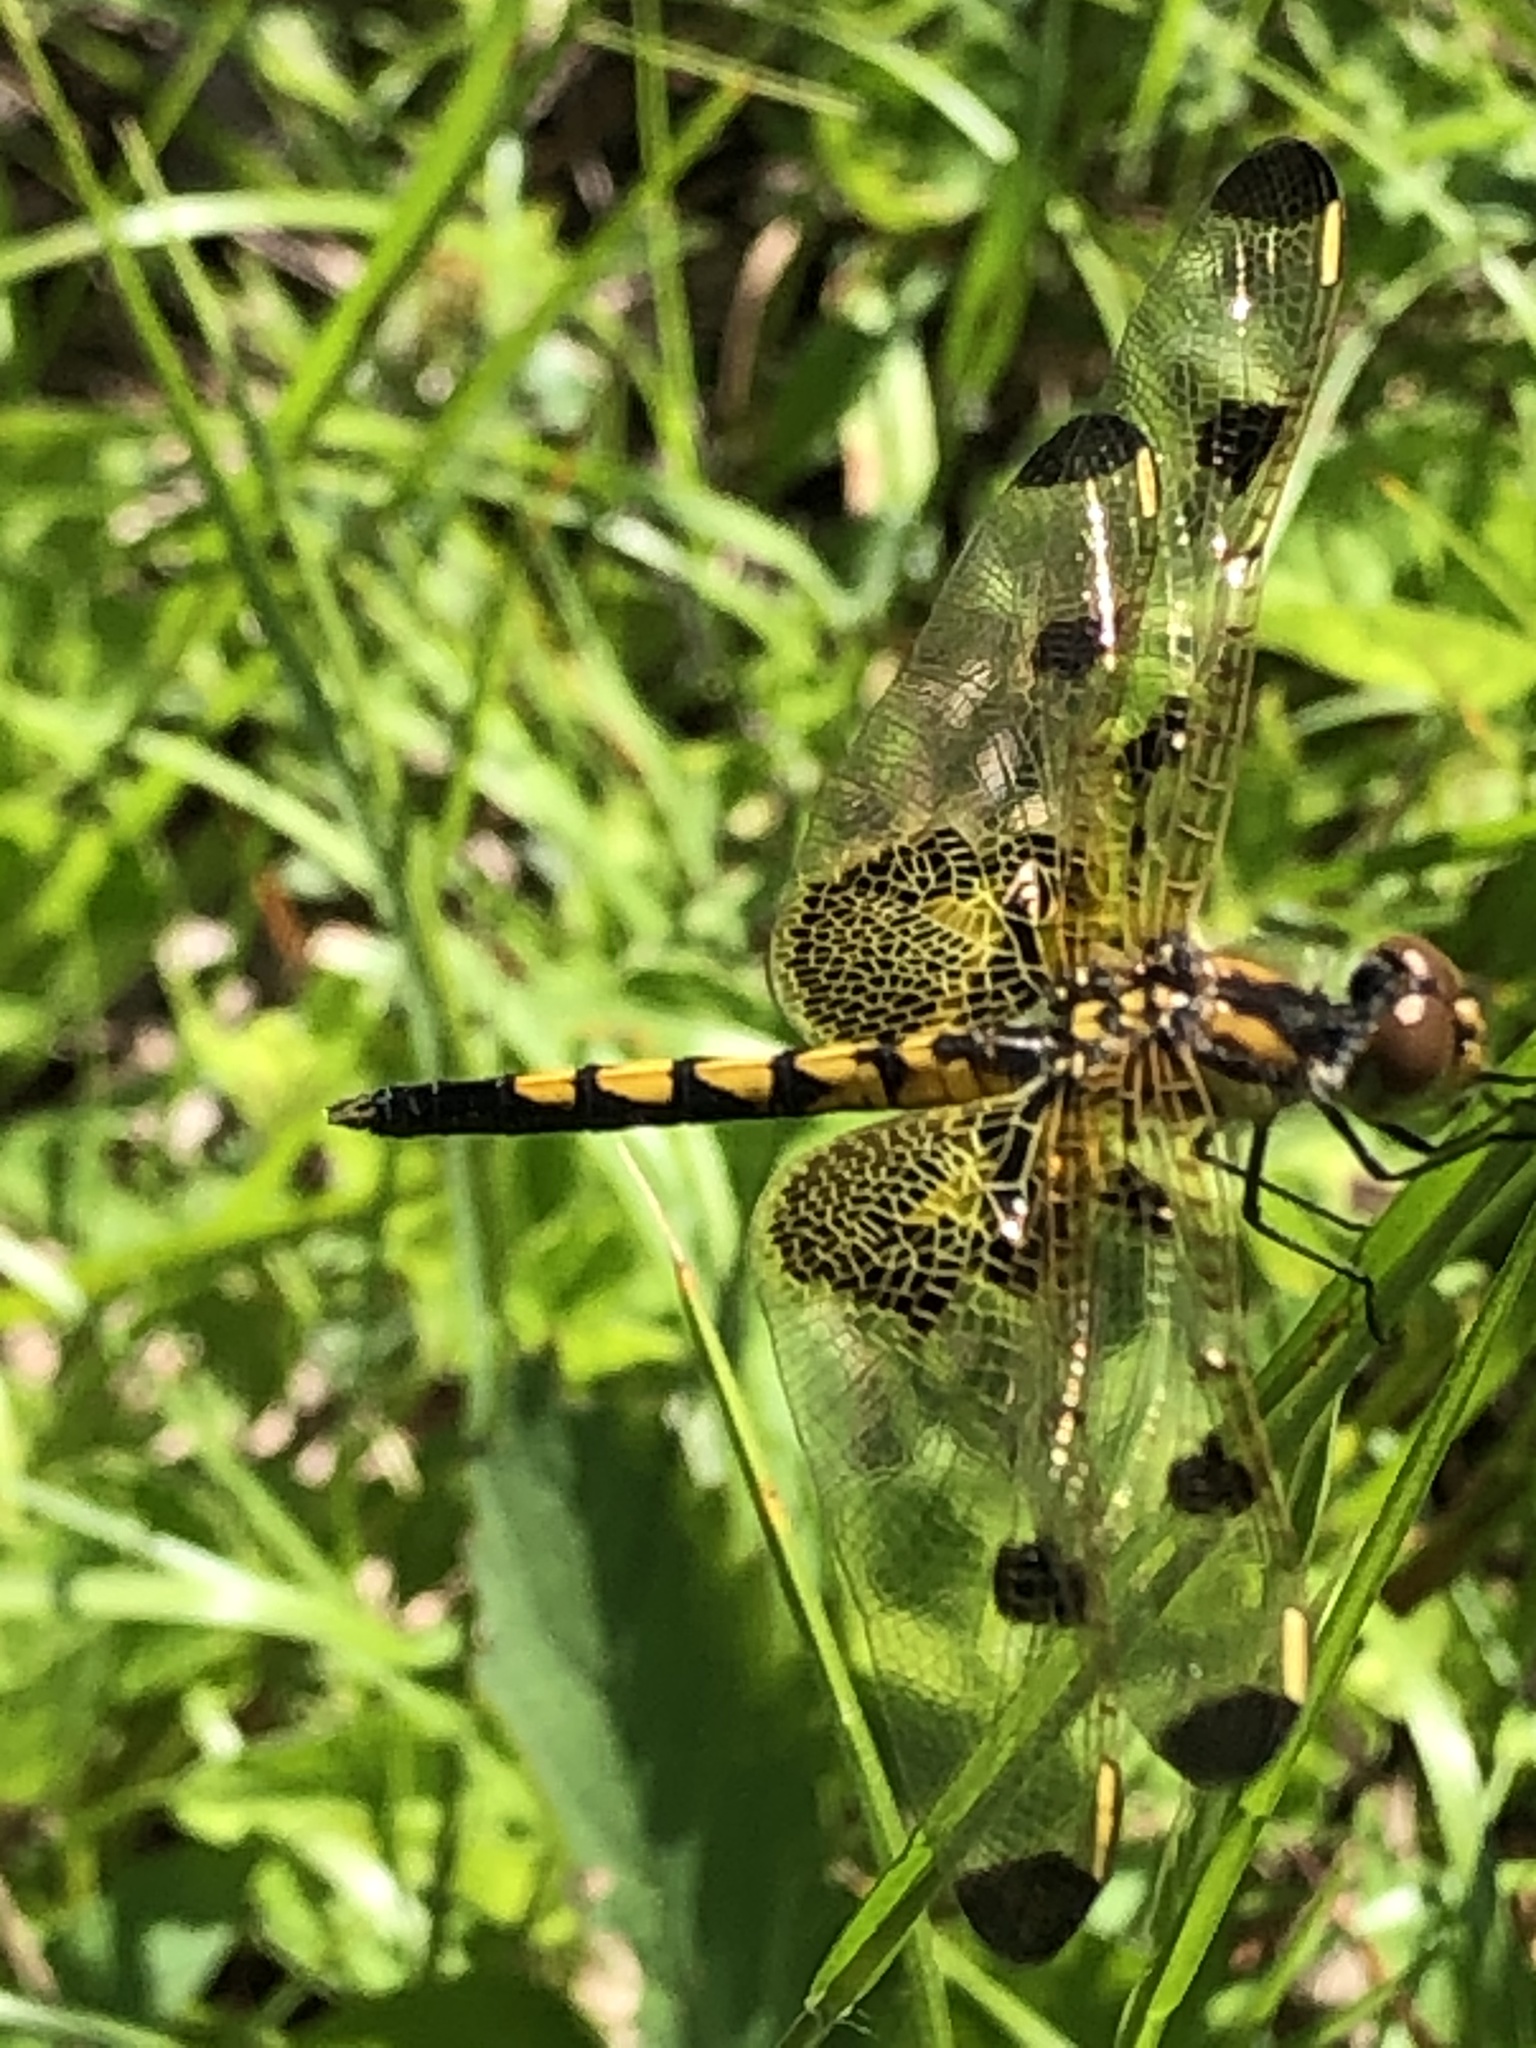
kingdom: Animalia
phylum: Arthropoda
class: Insecta
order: Odonata
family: Libellulidae
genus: Celithemis
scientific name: Celithemis elisa
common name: Calico pennant
